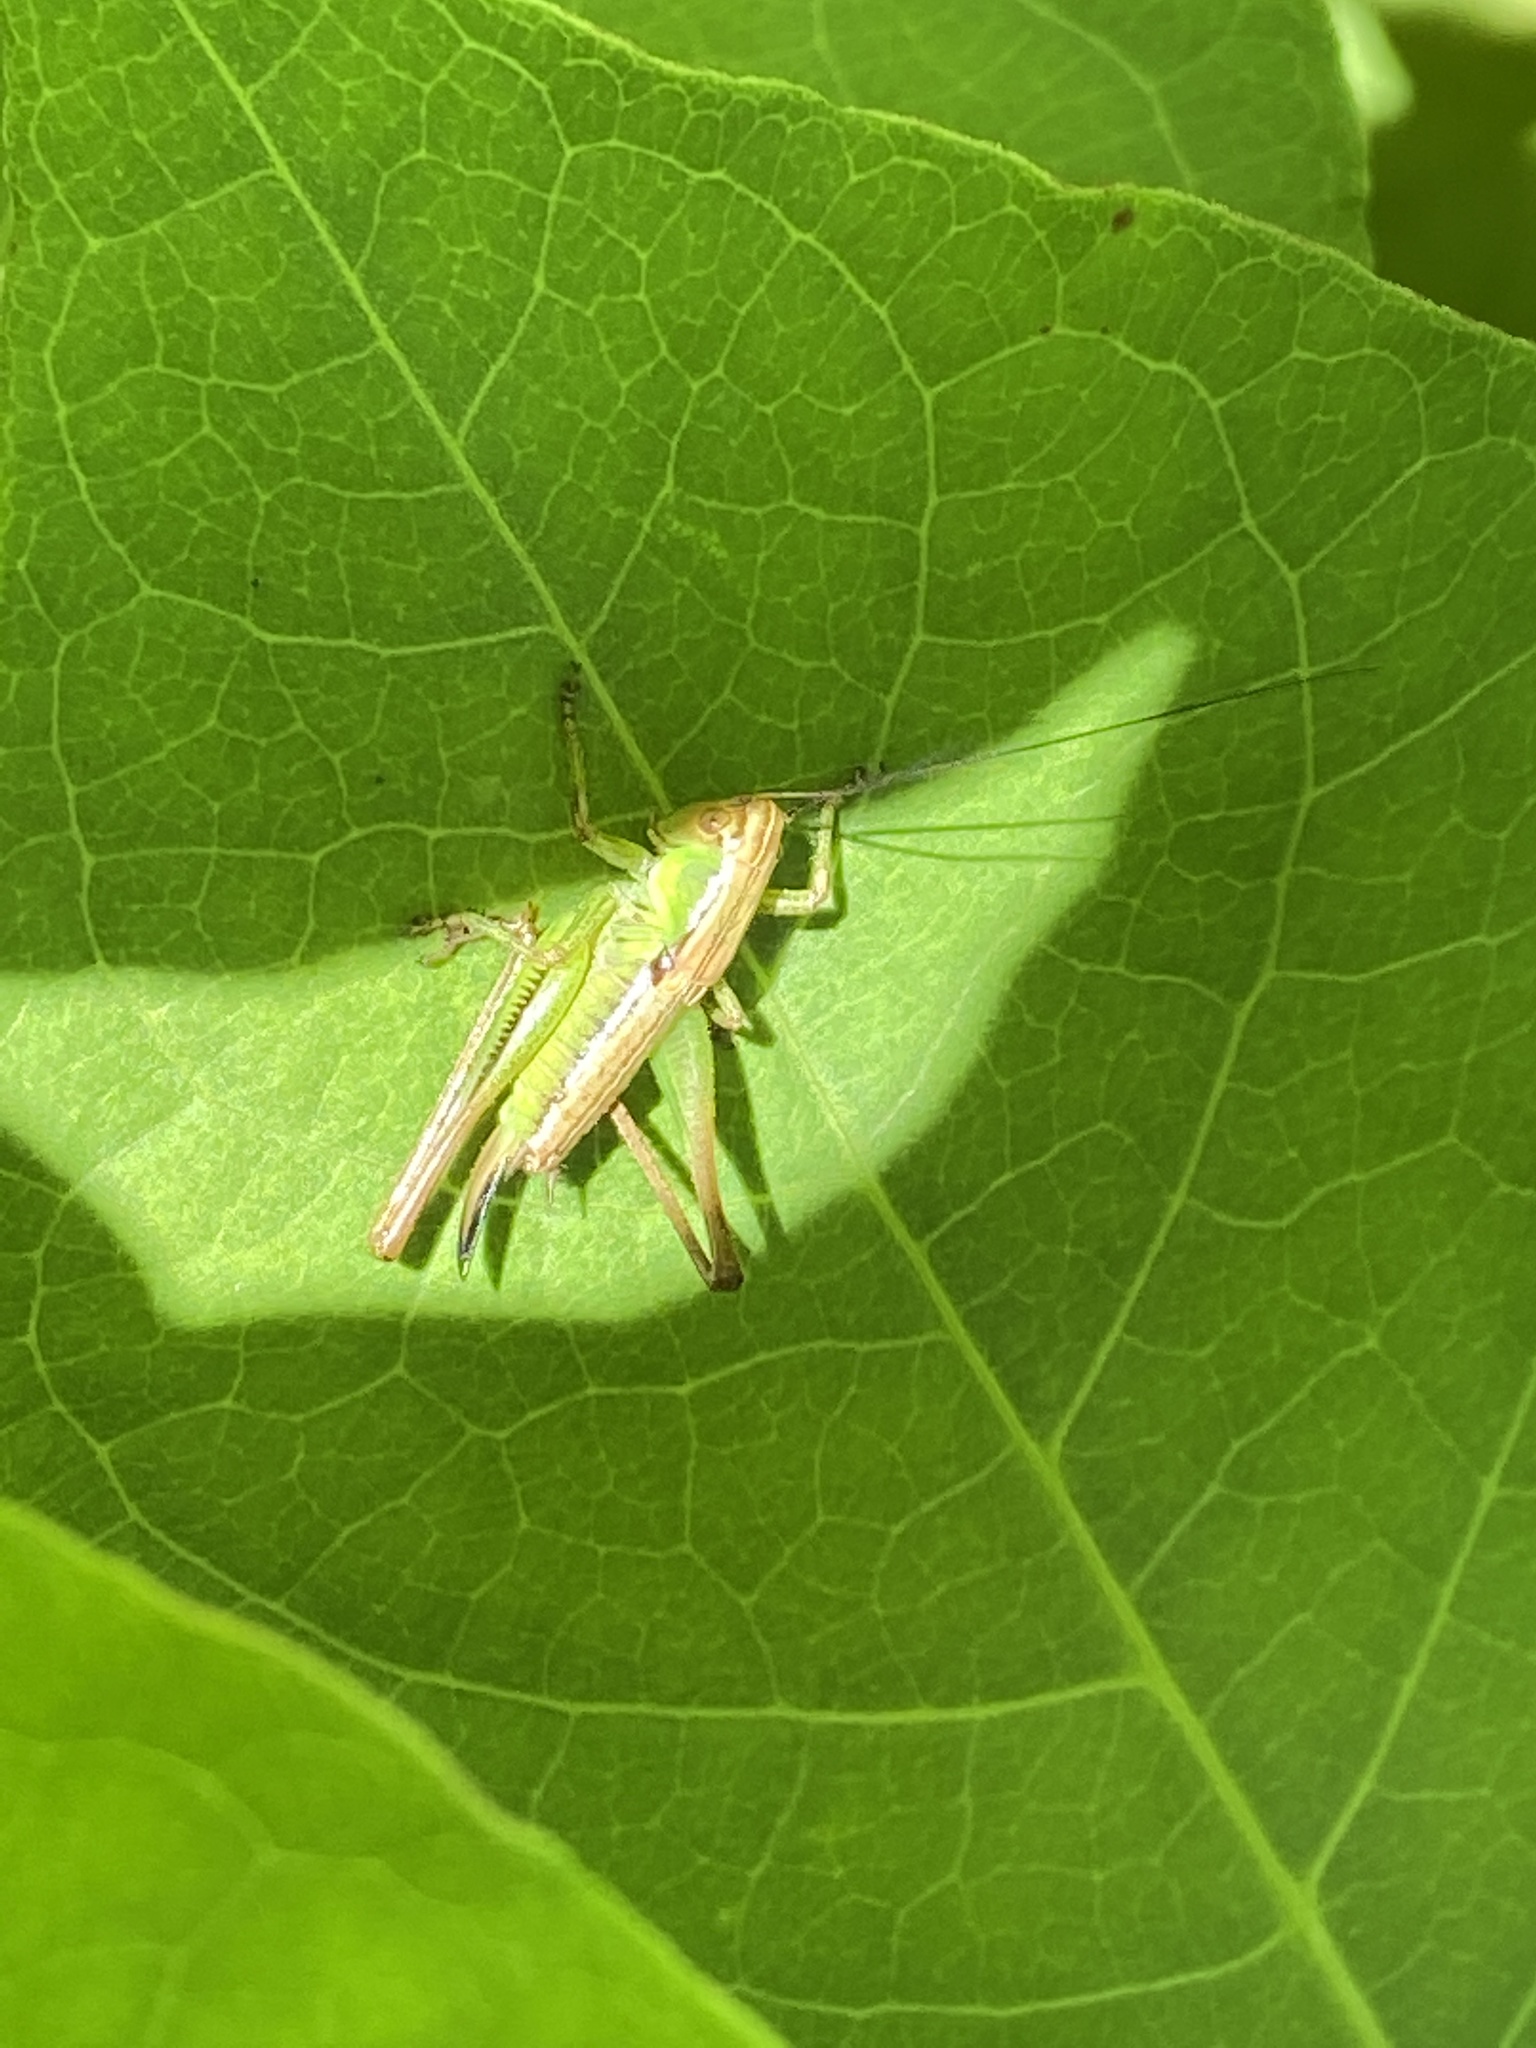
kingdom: Animalia
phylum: Arthropoda
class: Insecta
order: Orthoptera
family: Tettigoniidae
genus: Roeseliana
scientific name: Roeseliana roeselii
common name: Roesel's bush cricket
